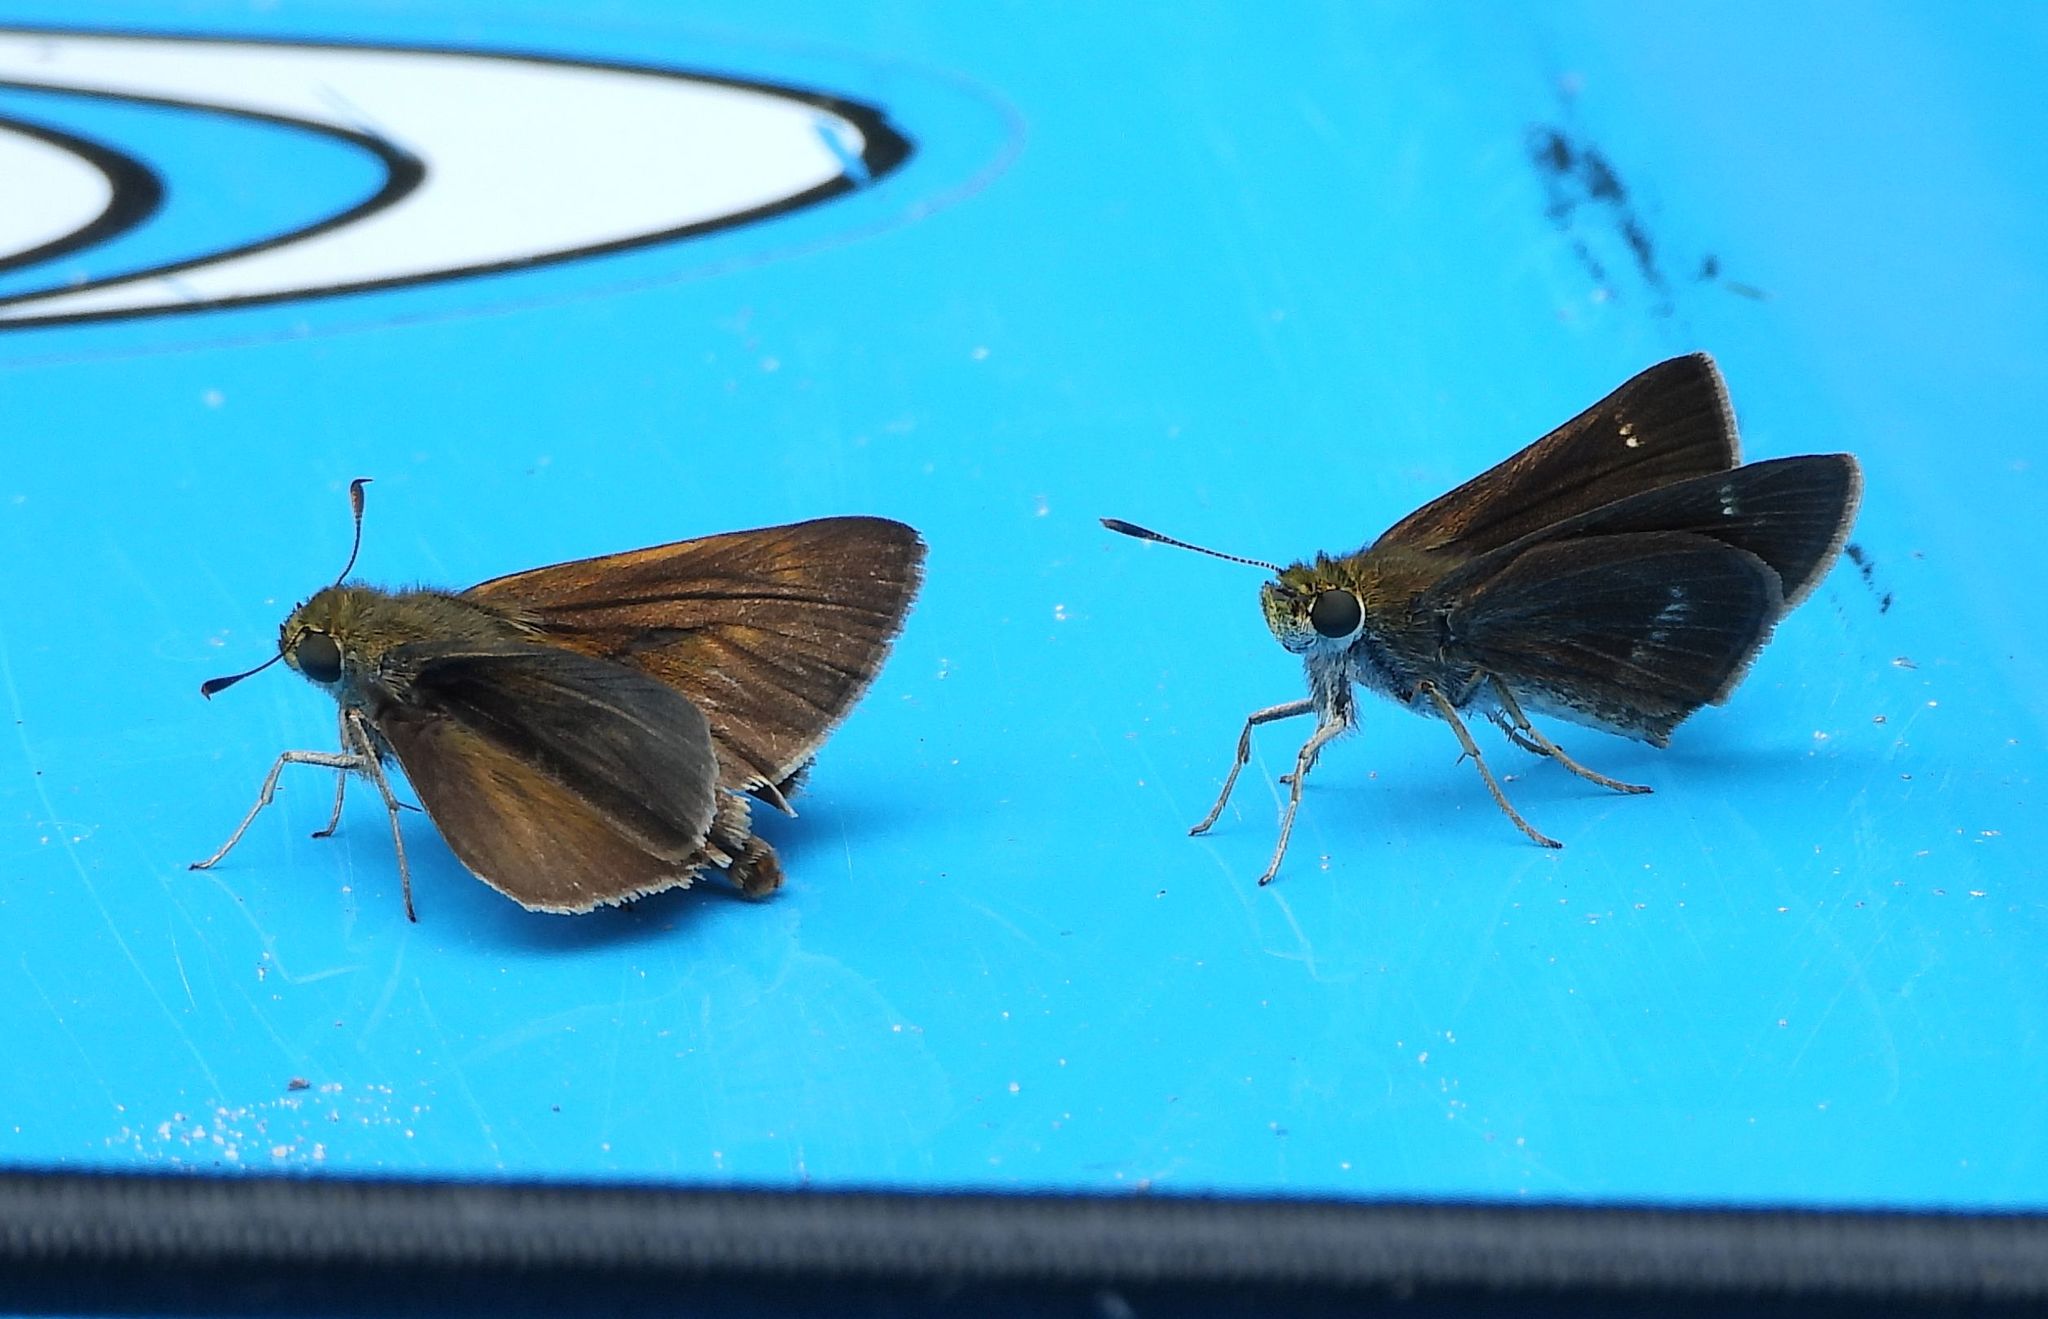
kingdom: Animalia
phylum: Arthropoda
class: Insecta
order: Lepidoptera
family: Hesperiidae
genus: Euphyes
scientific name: Euphyes vestris
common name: Dun skipper
